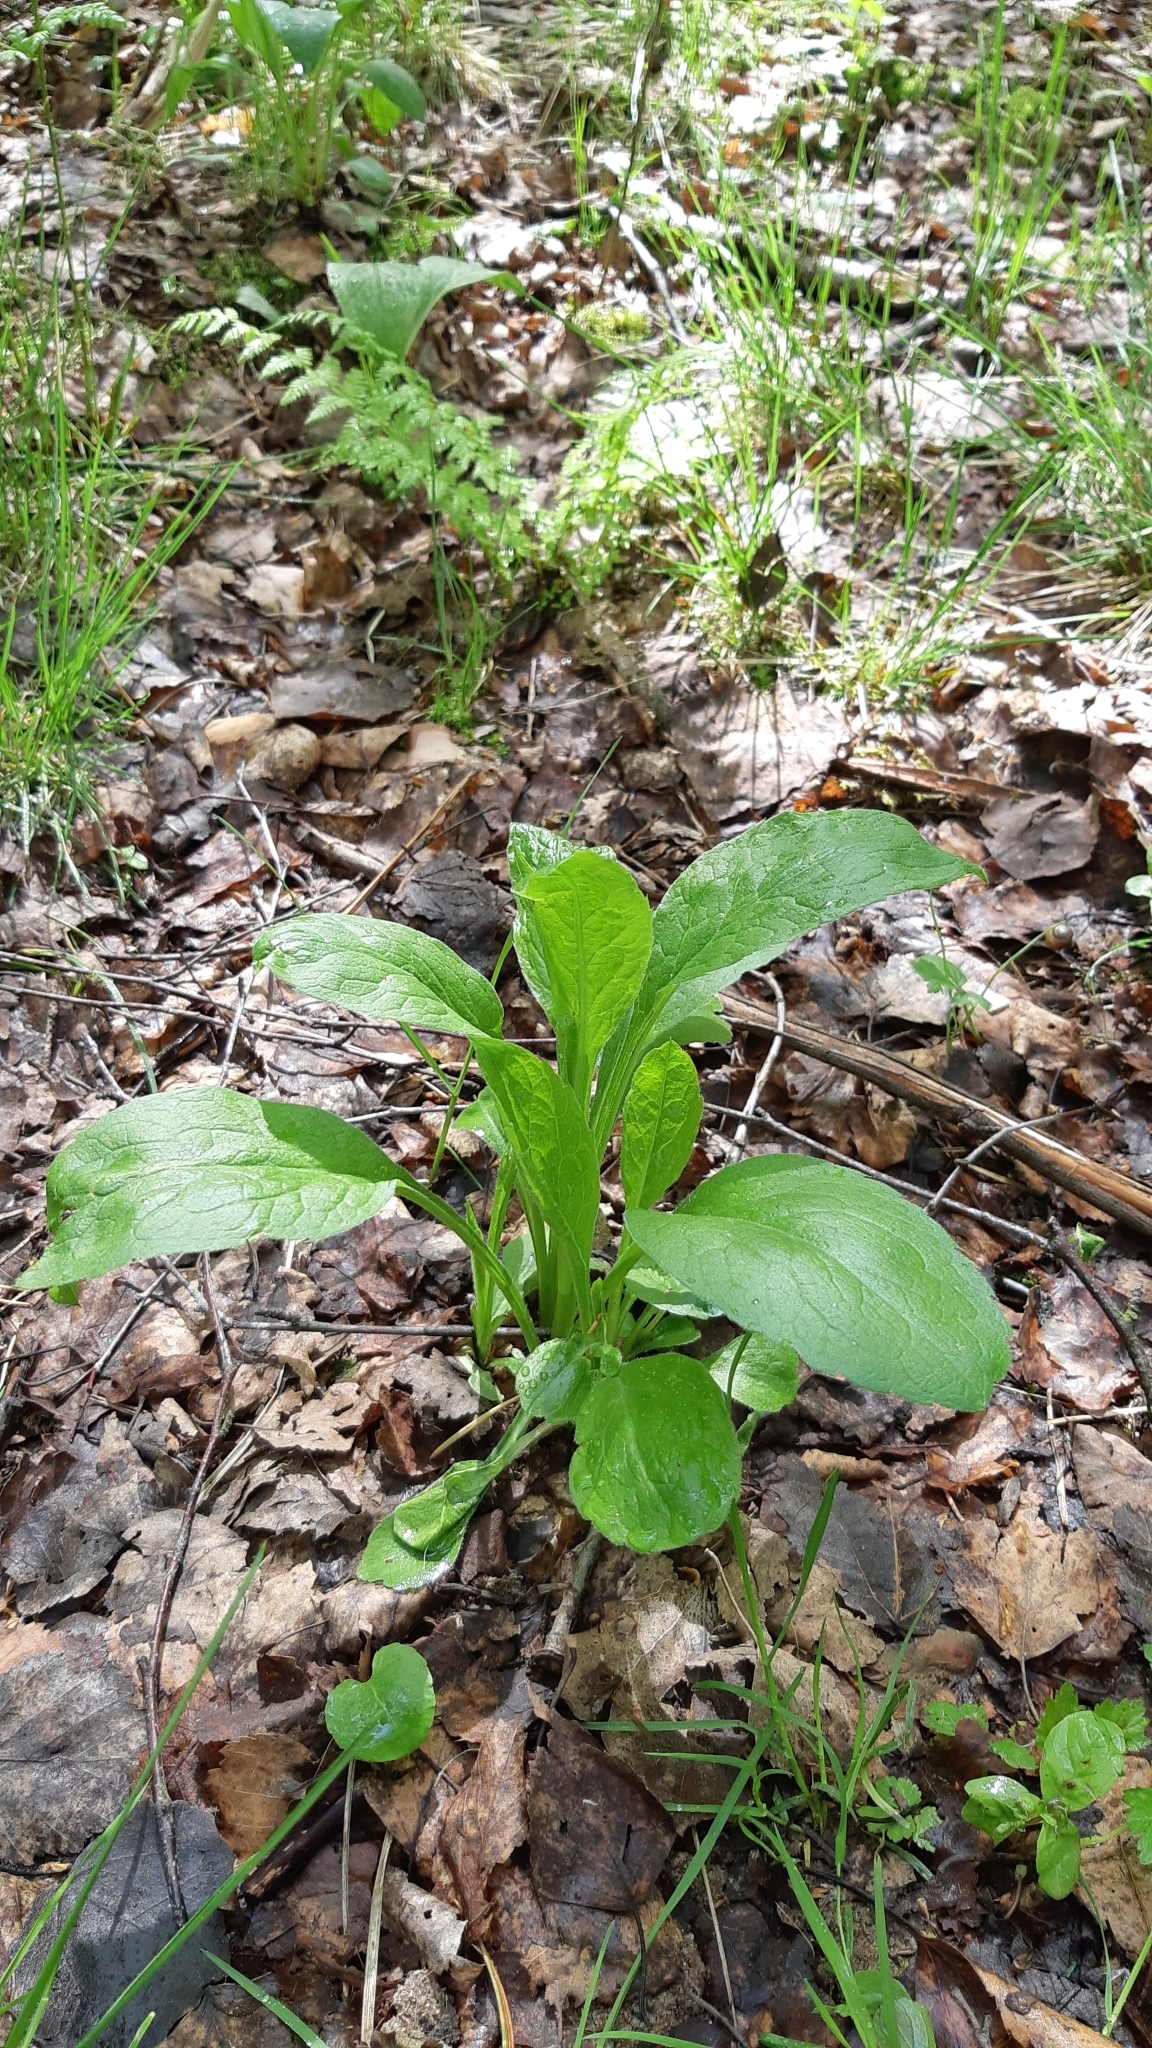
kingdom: Plantae
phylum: Tracheophyta
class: Magnoliopsida
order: Asterales
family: Asteraceae
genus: Solidago
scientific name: Solidago virgaurea
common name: Goldenrod
